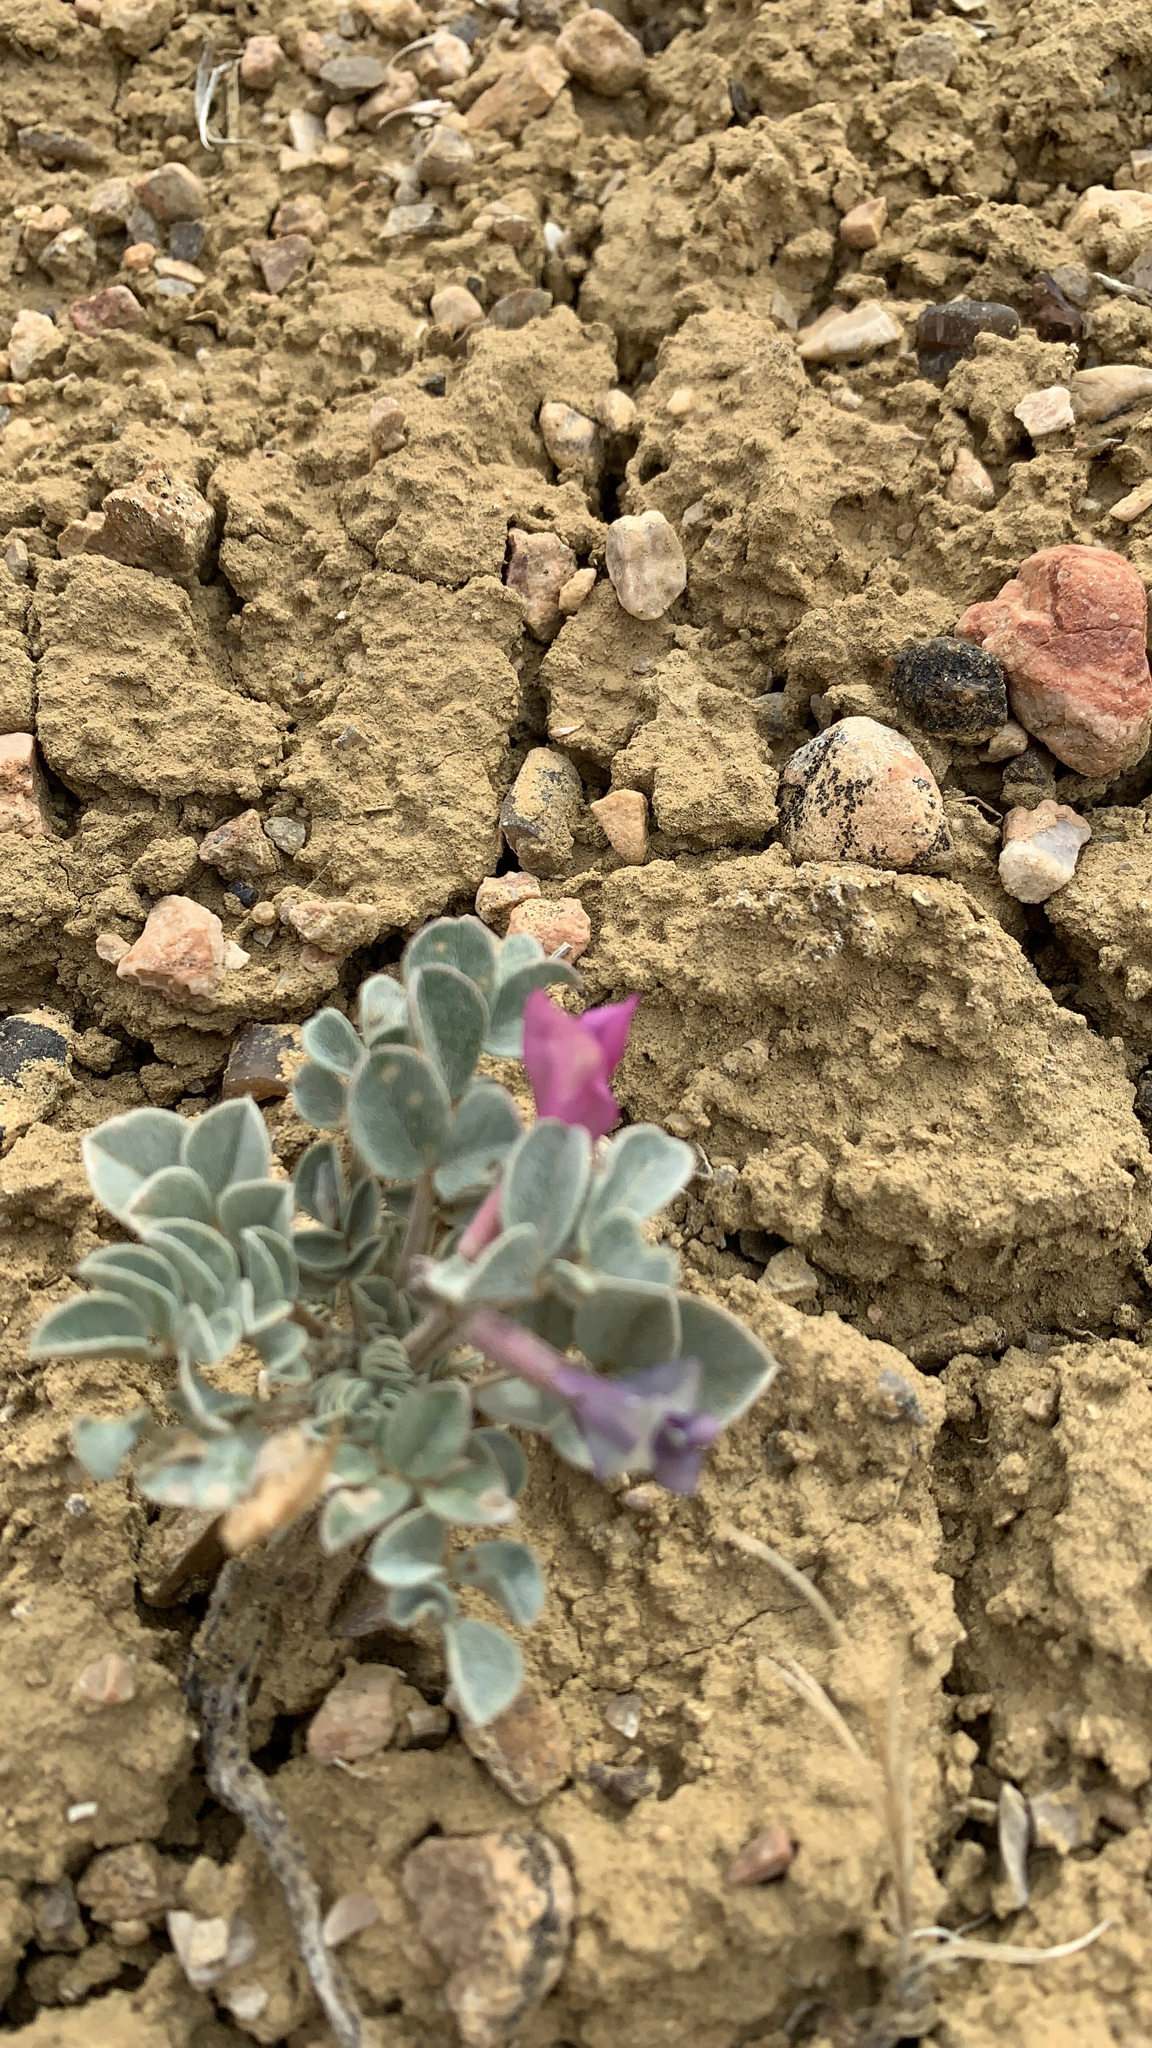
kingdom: Plantae
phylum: Tracheophyta
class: Magnoliopsida
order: Fabales
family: Fabaceae
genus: Astragalus
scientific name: Astragalus chamaeleuce
